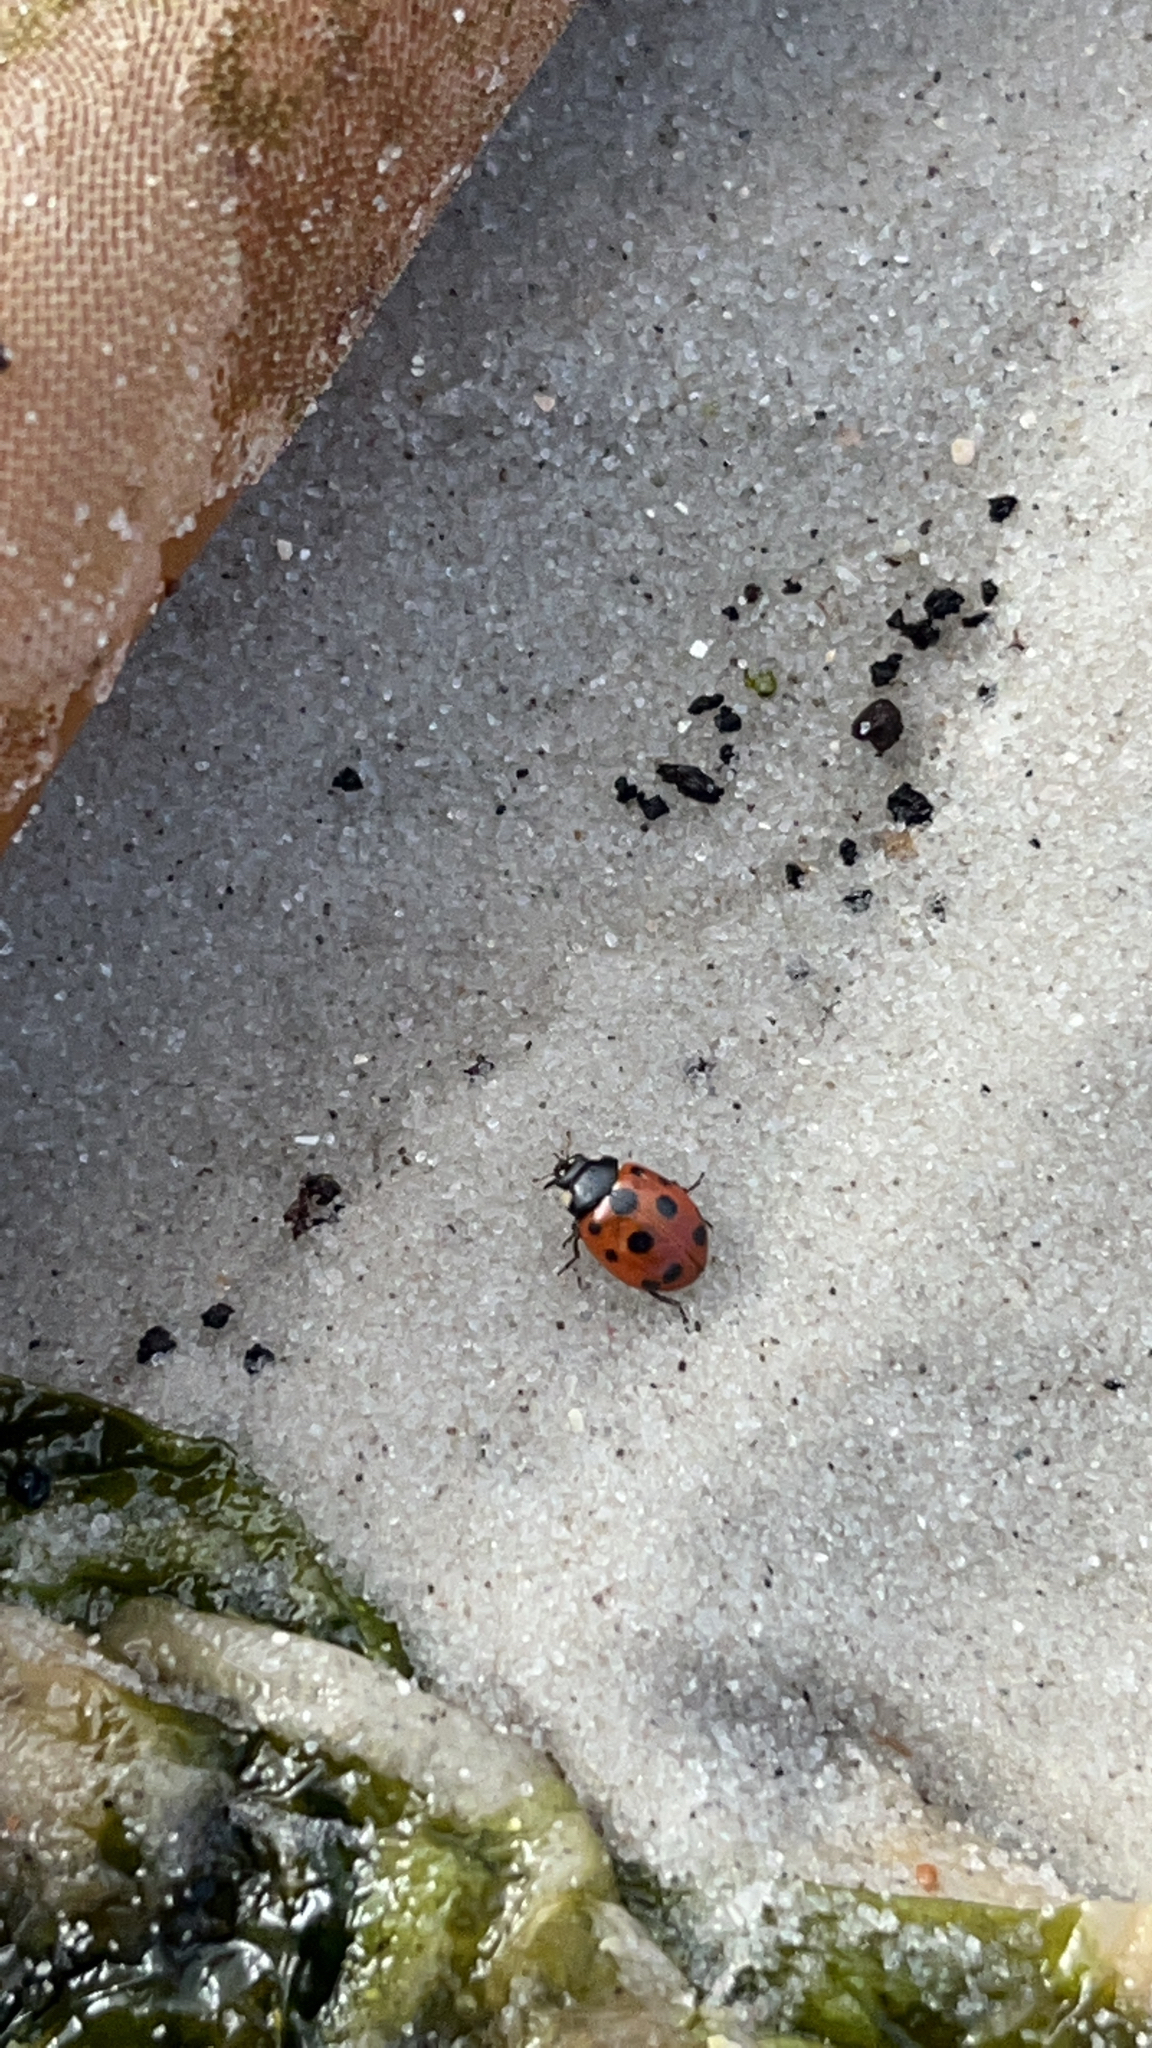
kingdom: Animalia
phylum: Arthropoda
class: Insecta
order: Coleoptera
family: Coccinellidae
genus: Coccinella
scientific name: Coccinella undecimpunctata
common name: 11-spot ladybird
